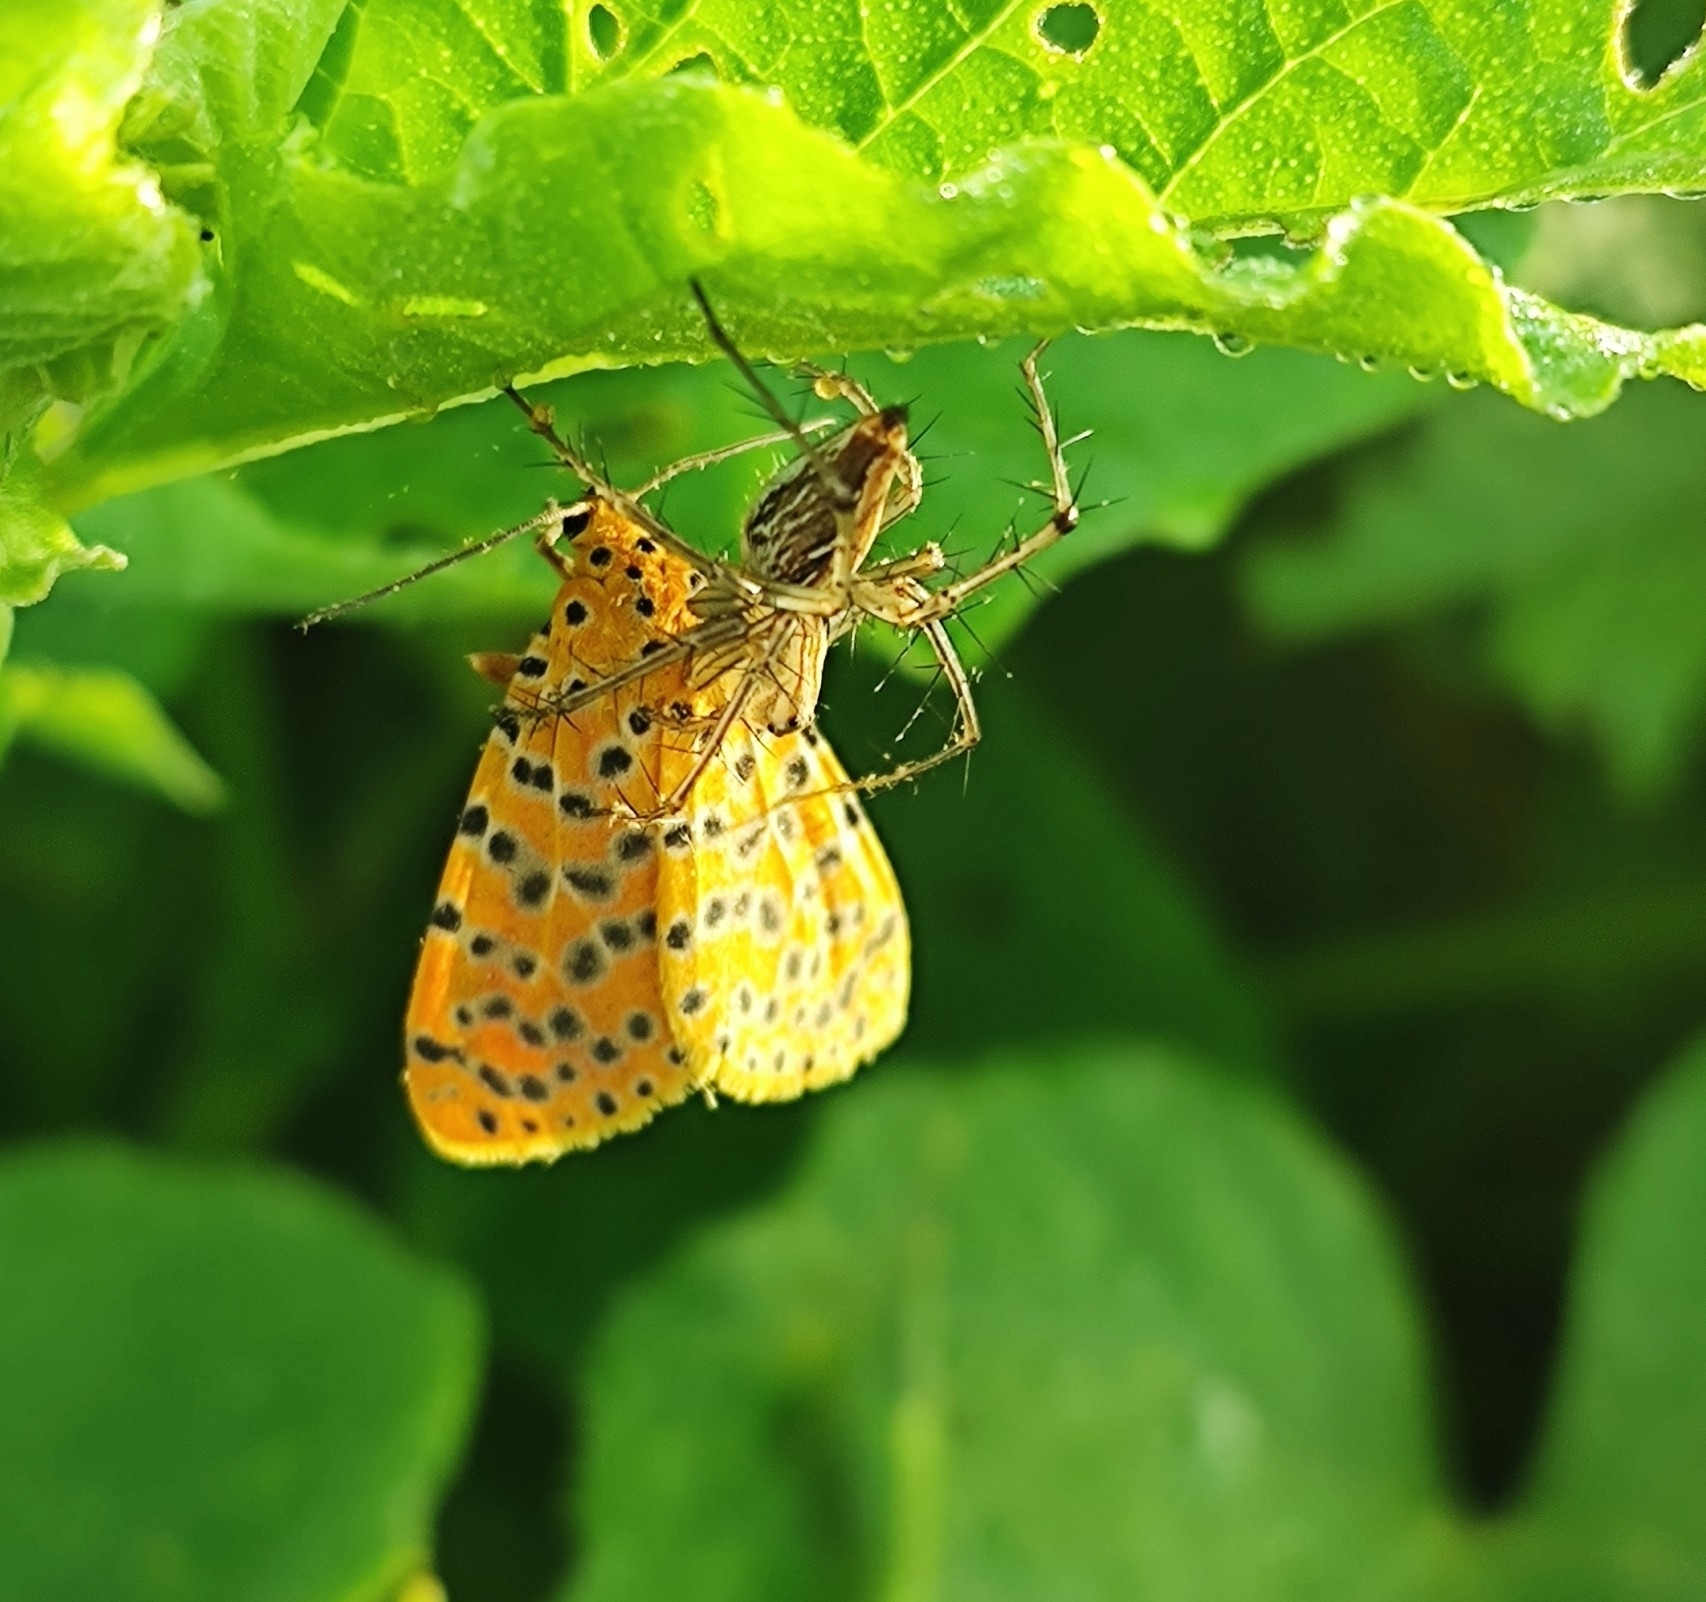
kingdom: Animalia
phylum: Arthropoda
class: Insecta
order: Lepidoptera
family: Erebidae
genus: Argina
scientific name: Argina astrea
